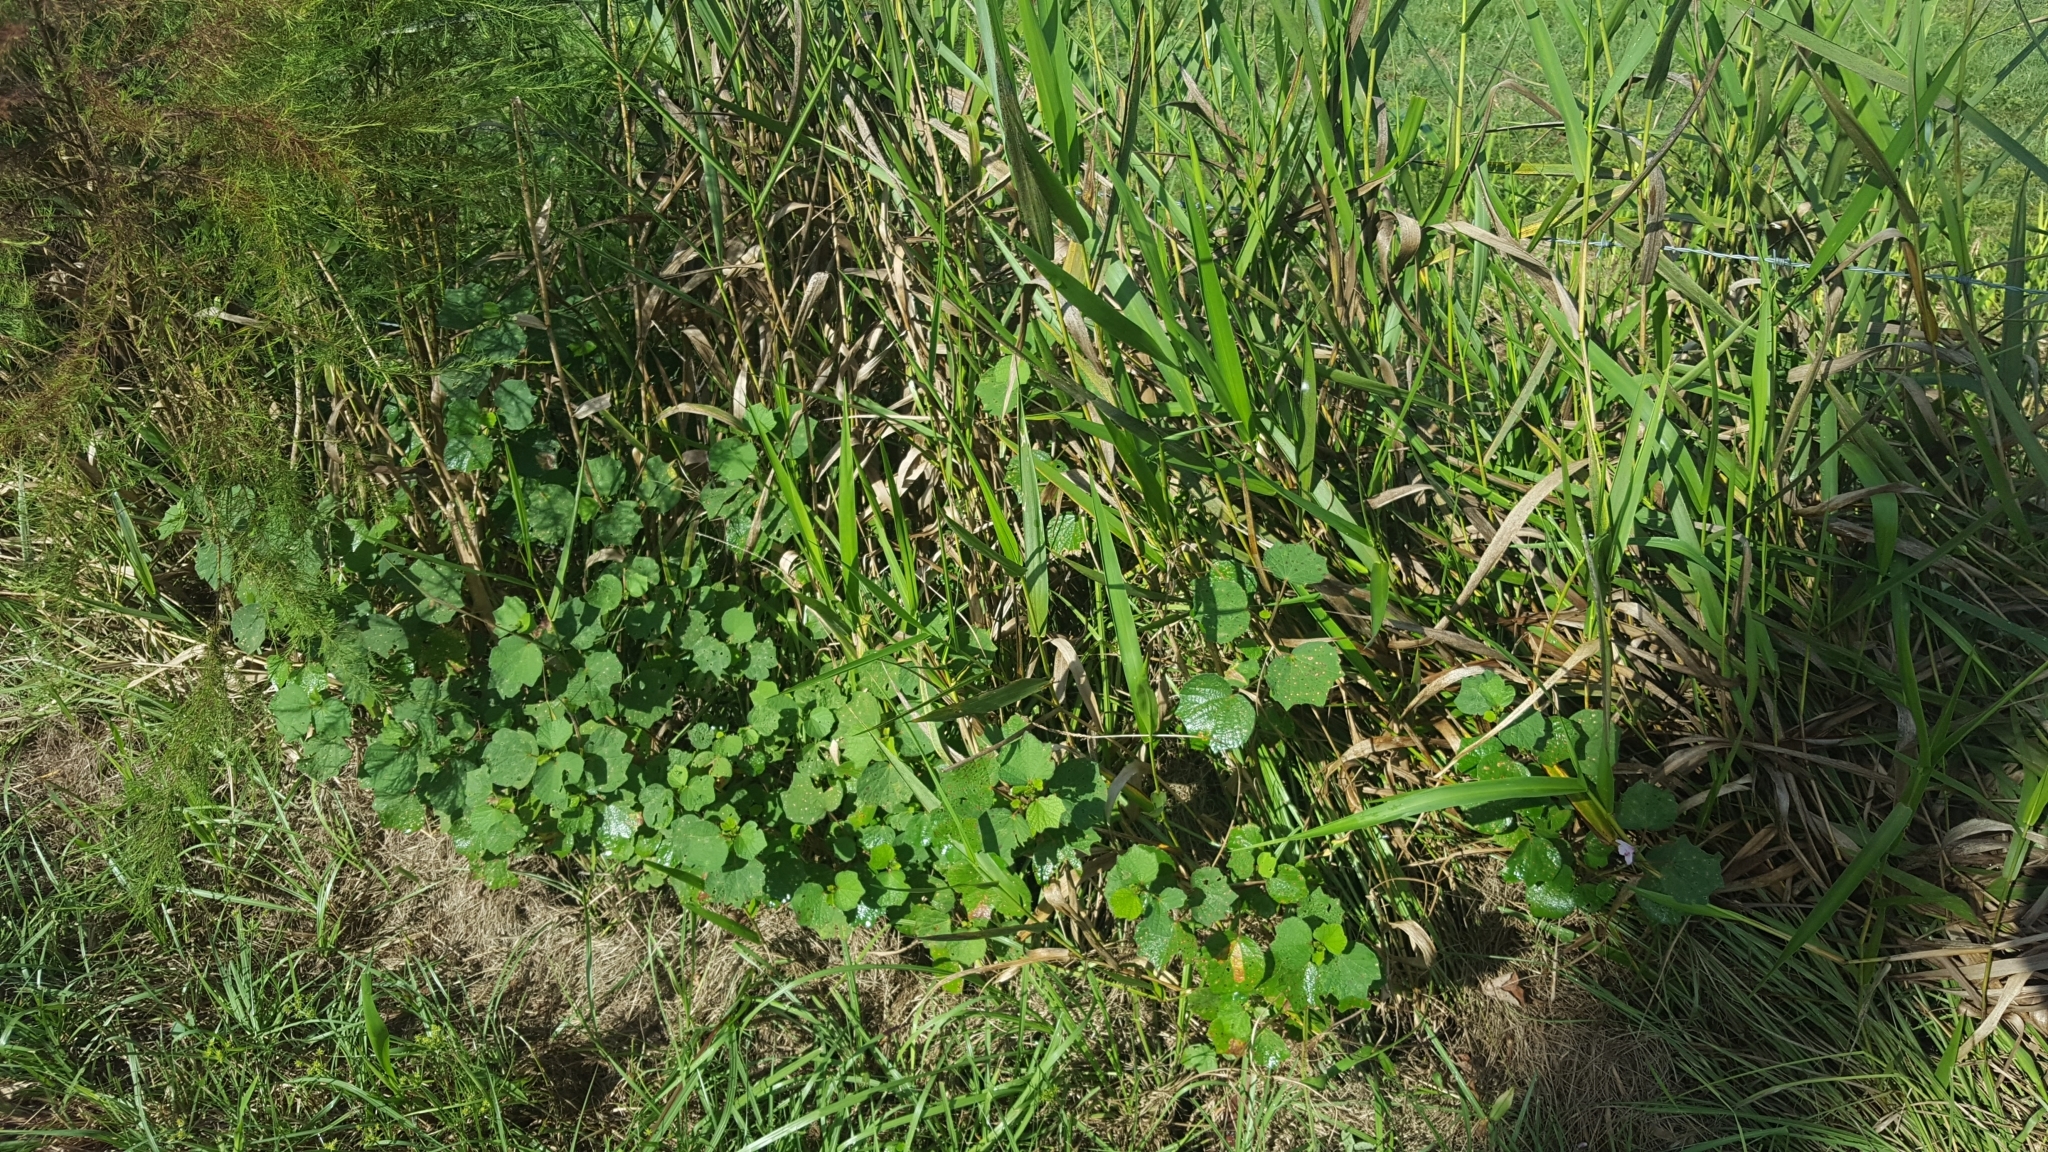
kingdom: Plantae
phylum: Tracheophyta
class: Magnoliopsida
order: Malvales
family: Malvaceae
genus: Urena
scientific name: Urena lobata
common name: Caesarweed
